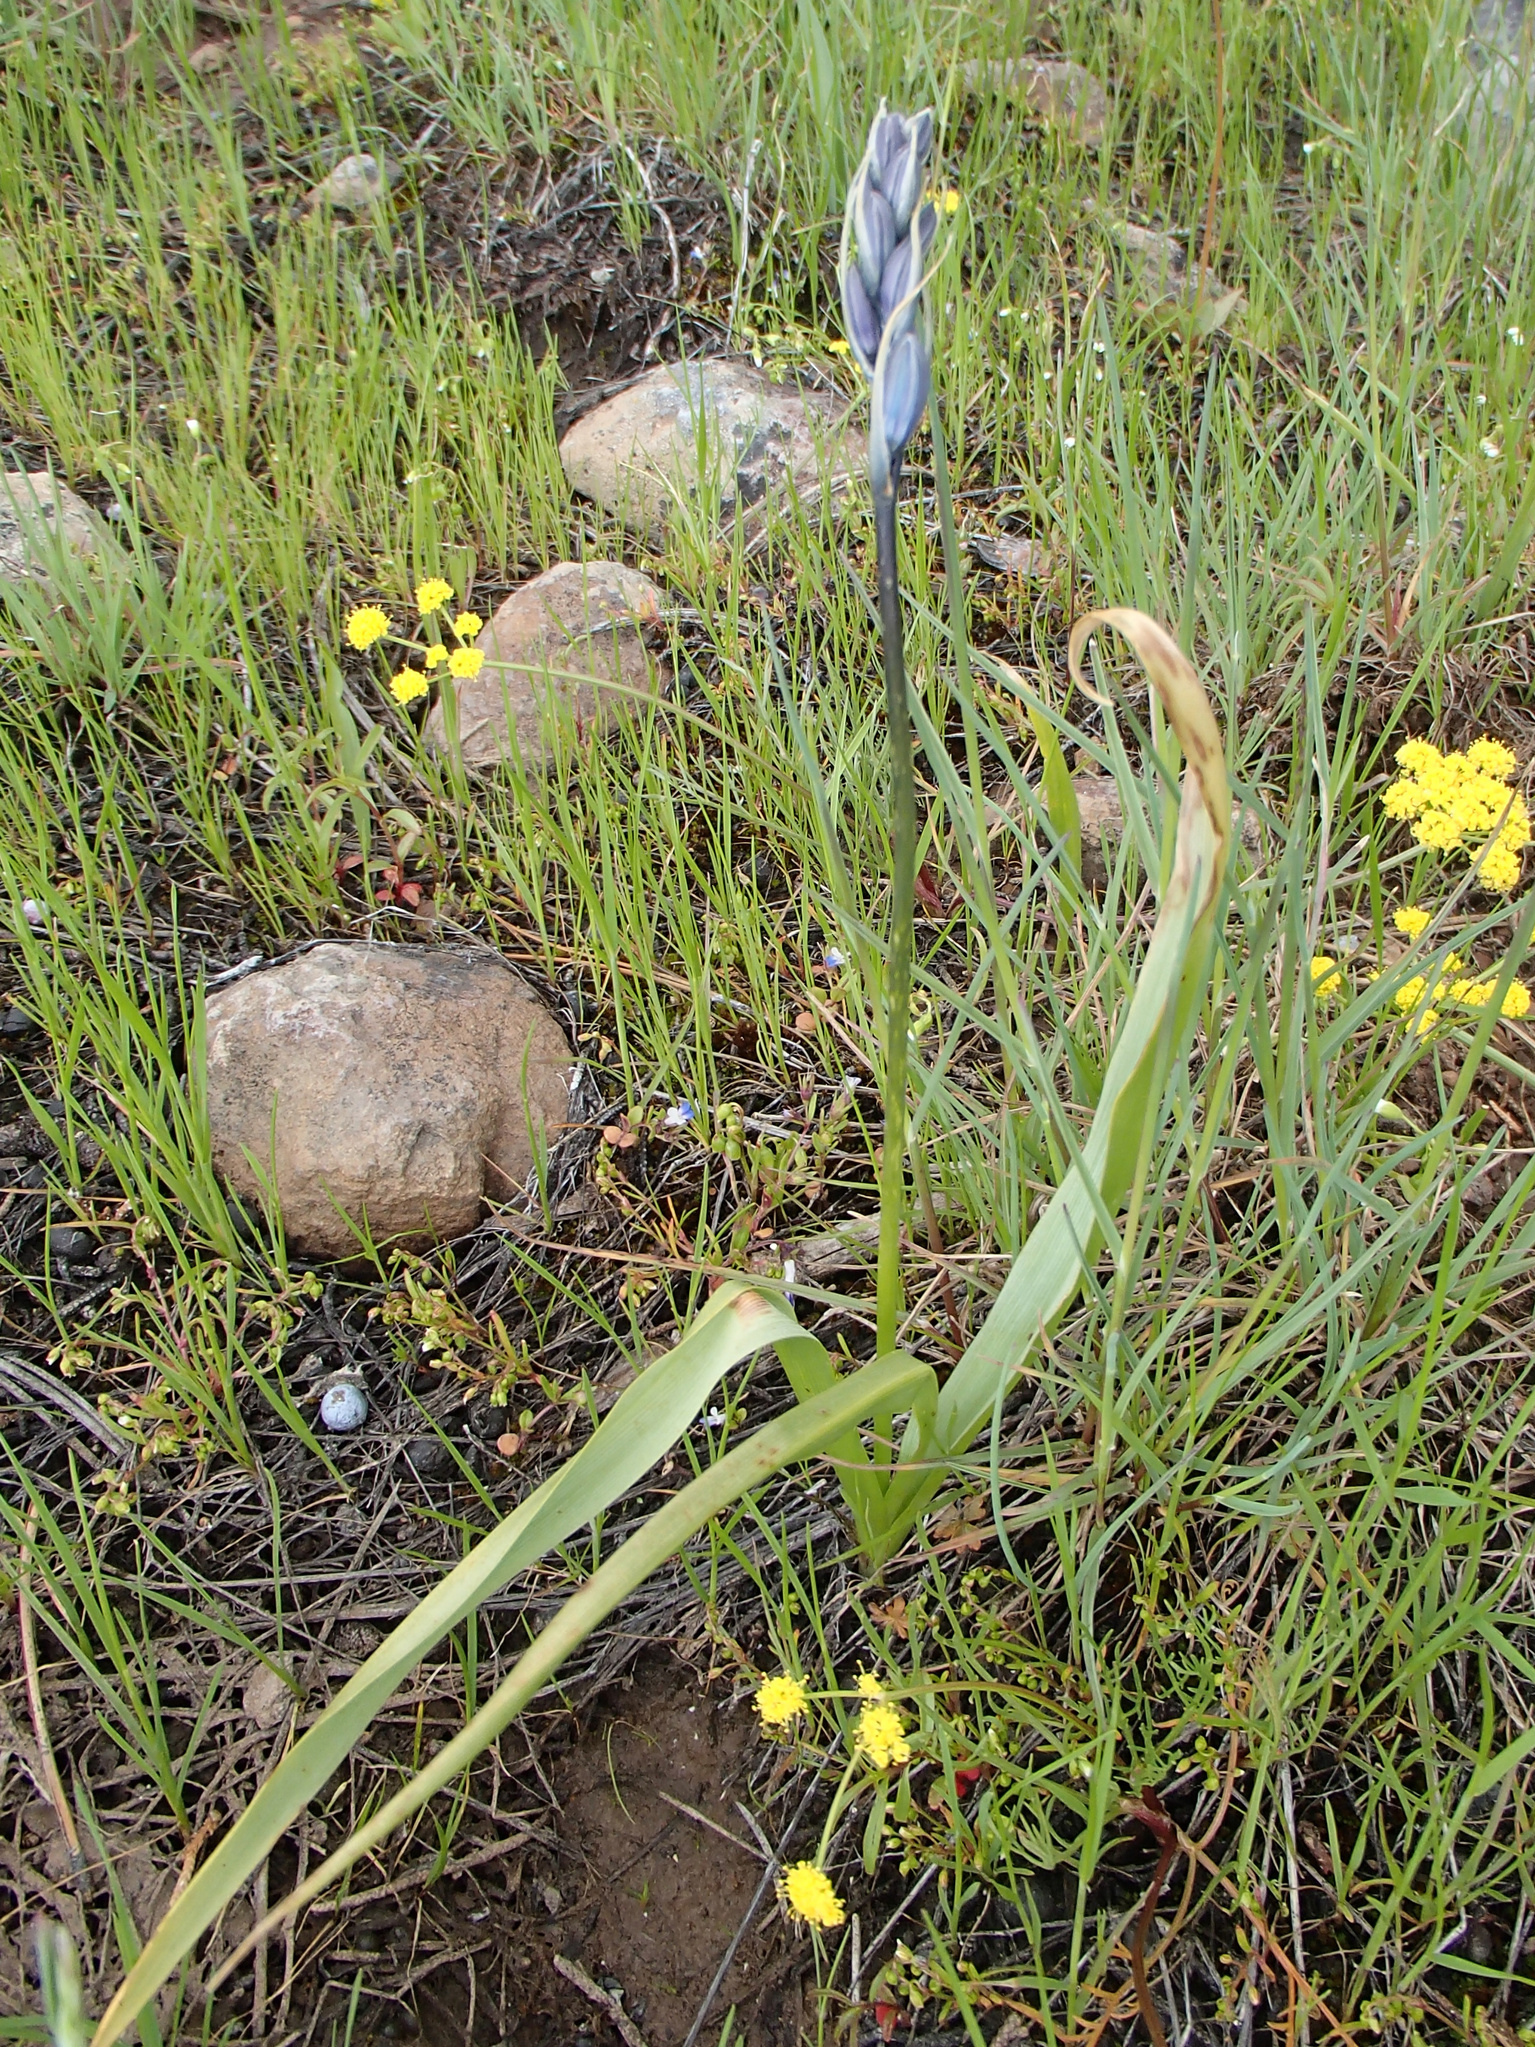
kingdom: Plantae
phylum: Tracheophyta
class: Liliopsida
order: Asparagales
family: Asparagaceae
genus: Camassia
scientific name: Camassia quamash
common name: Common camas
